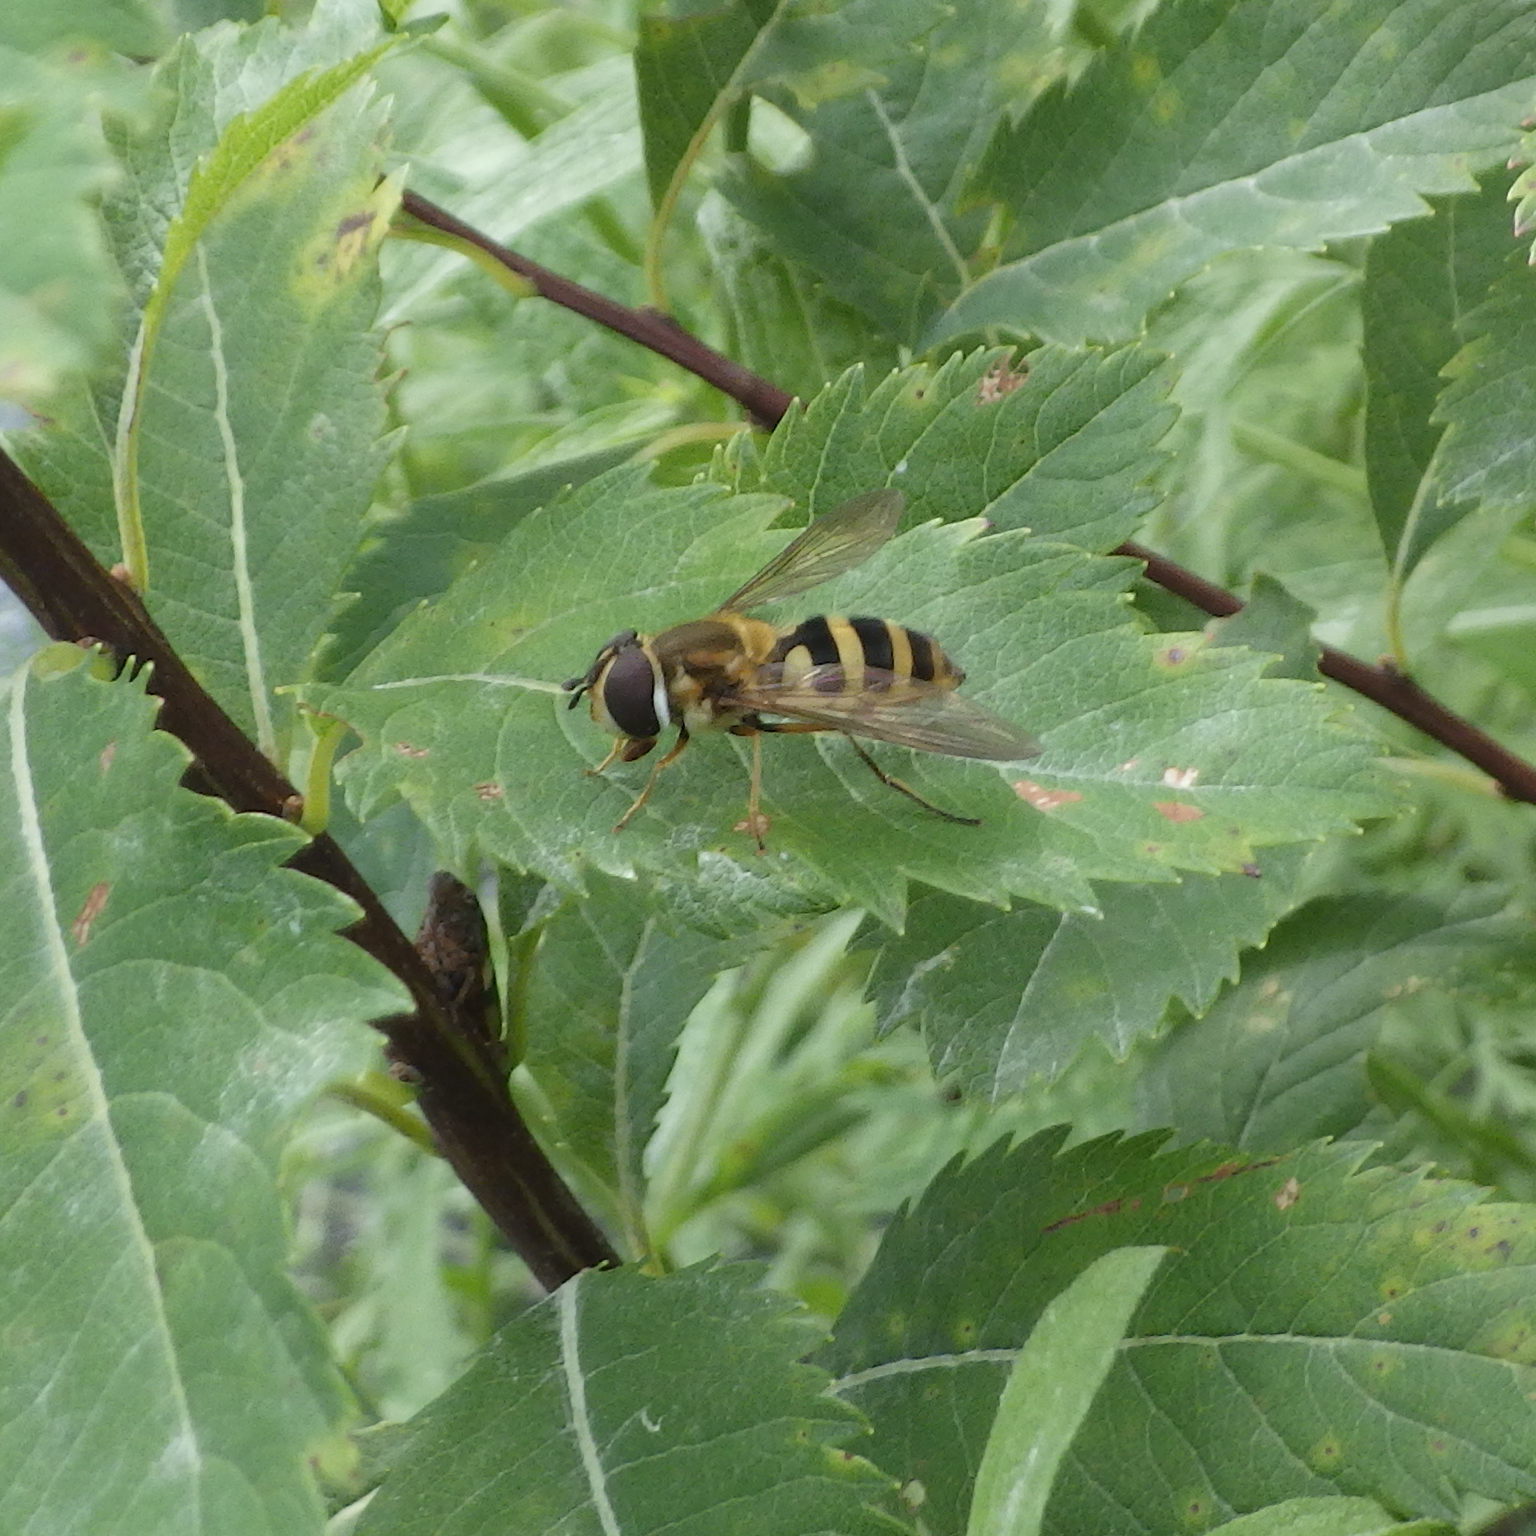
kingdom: Animalia
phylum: Arthropoda
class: Insecta
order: Diptera
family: Syrphidae
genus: Epistrophe
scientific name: Epistrophe grossulariae
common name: Black-horned smoothtail
